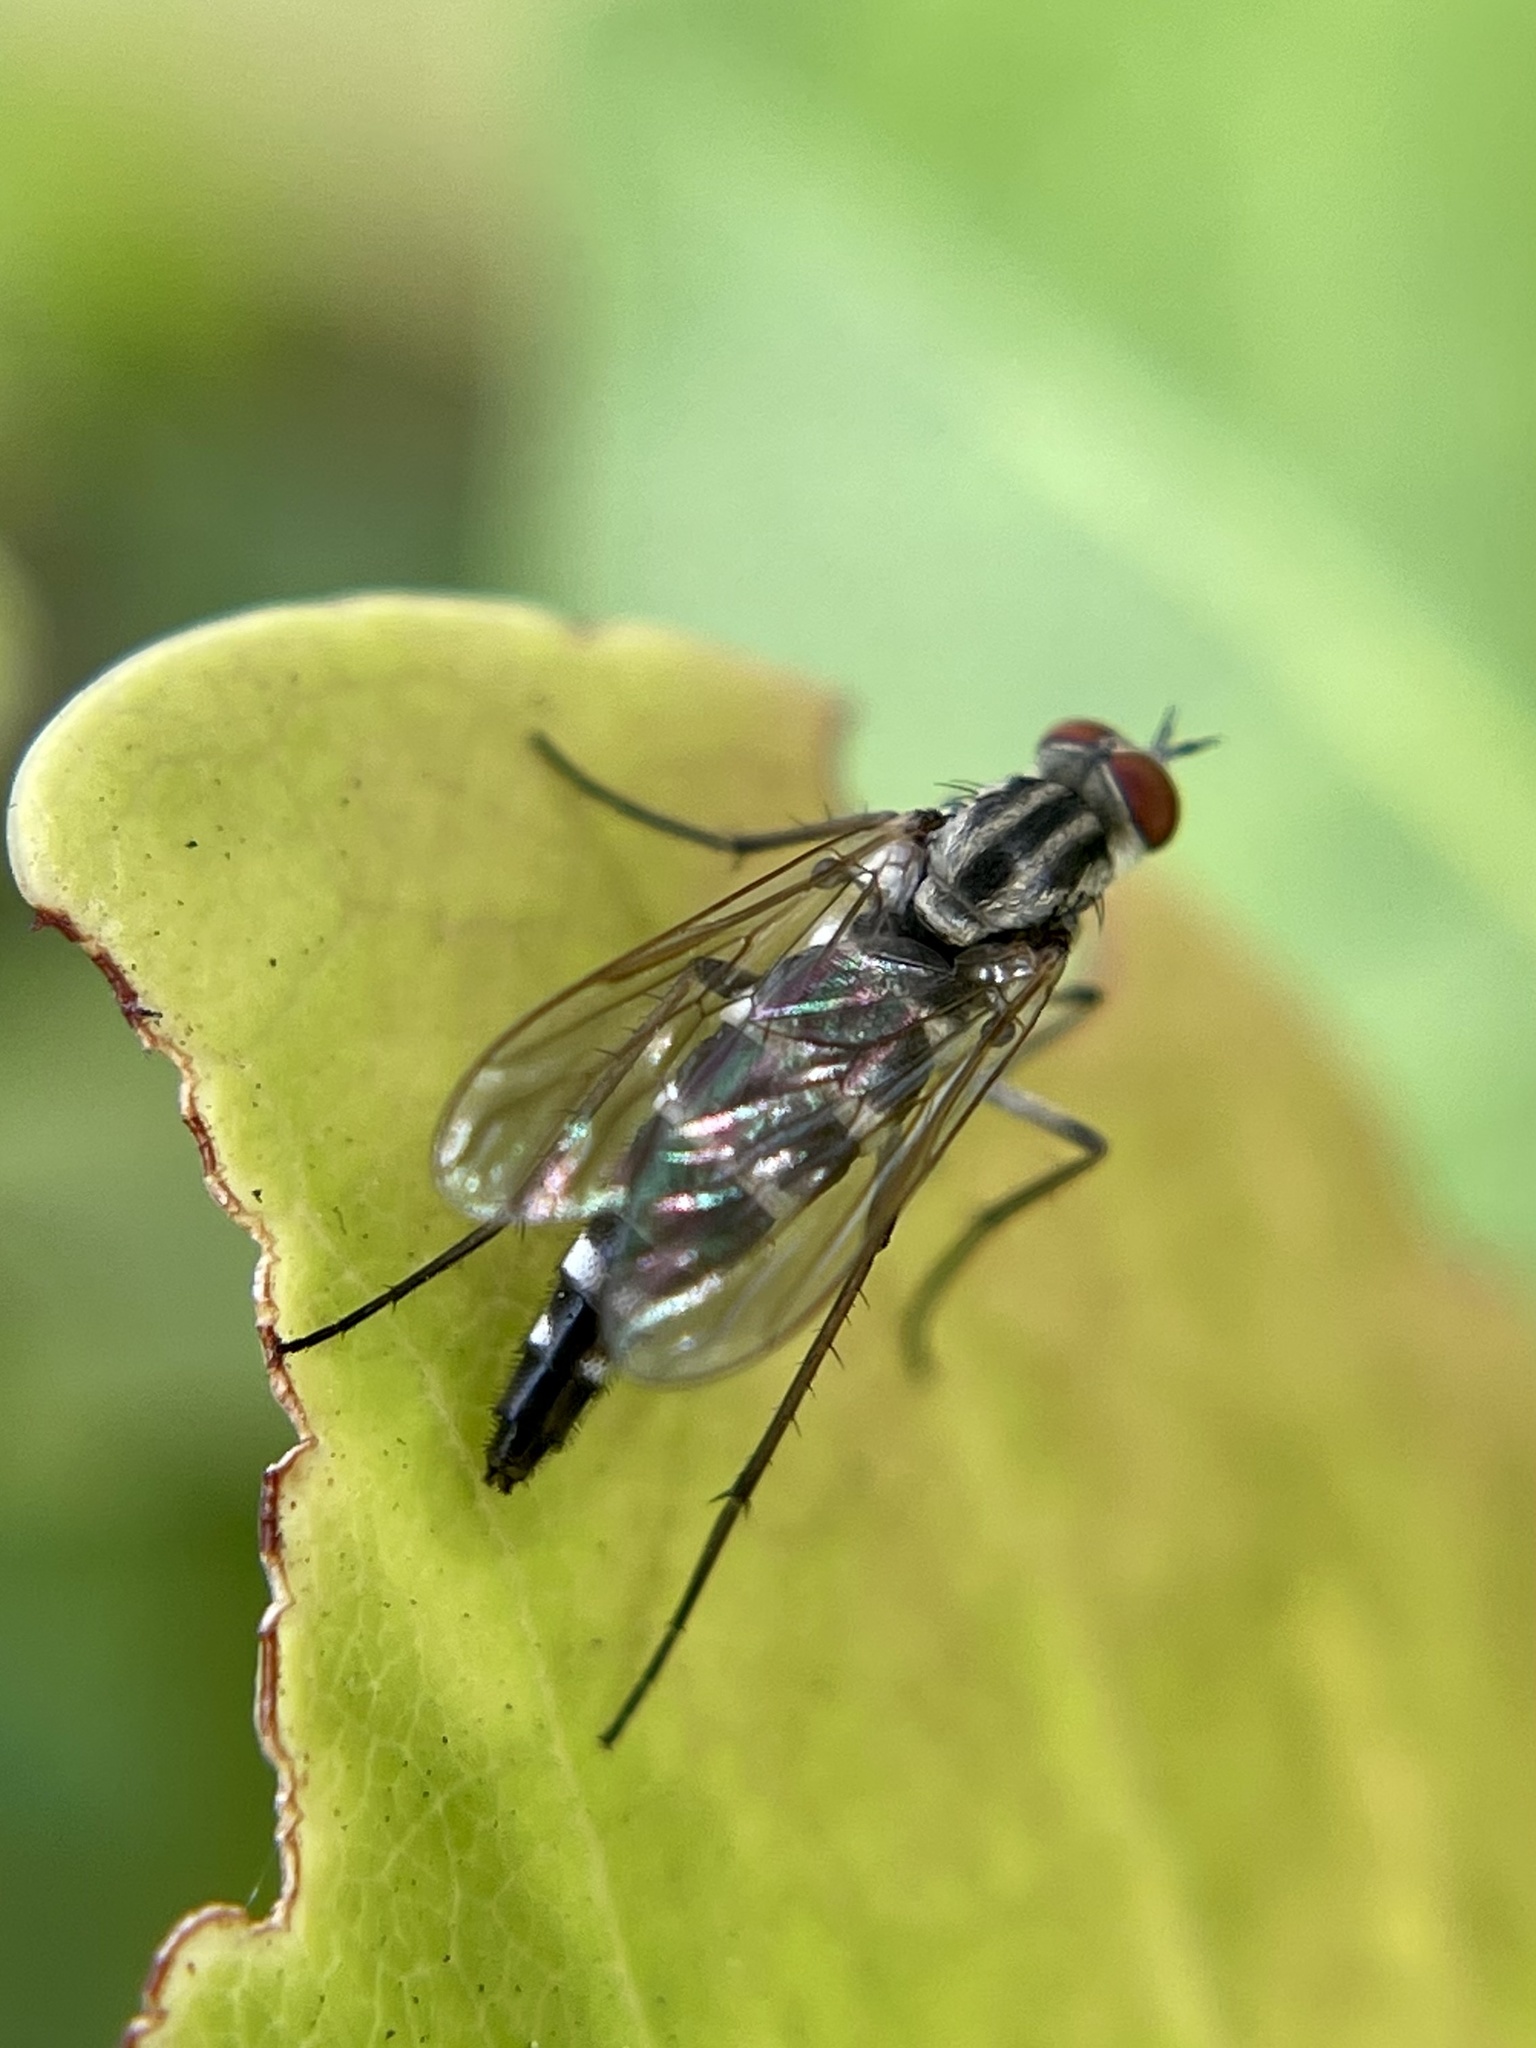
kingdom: Animalia
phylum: Arthropoda
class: Insecta
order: Diptera
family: Therevidae
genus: Penniverpa
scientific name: Penniverpa festina
